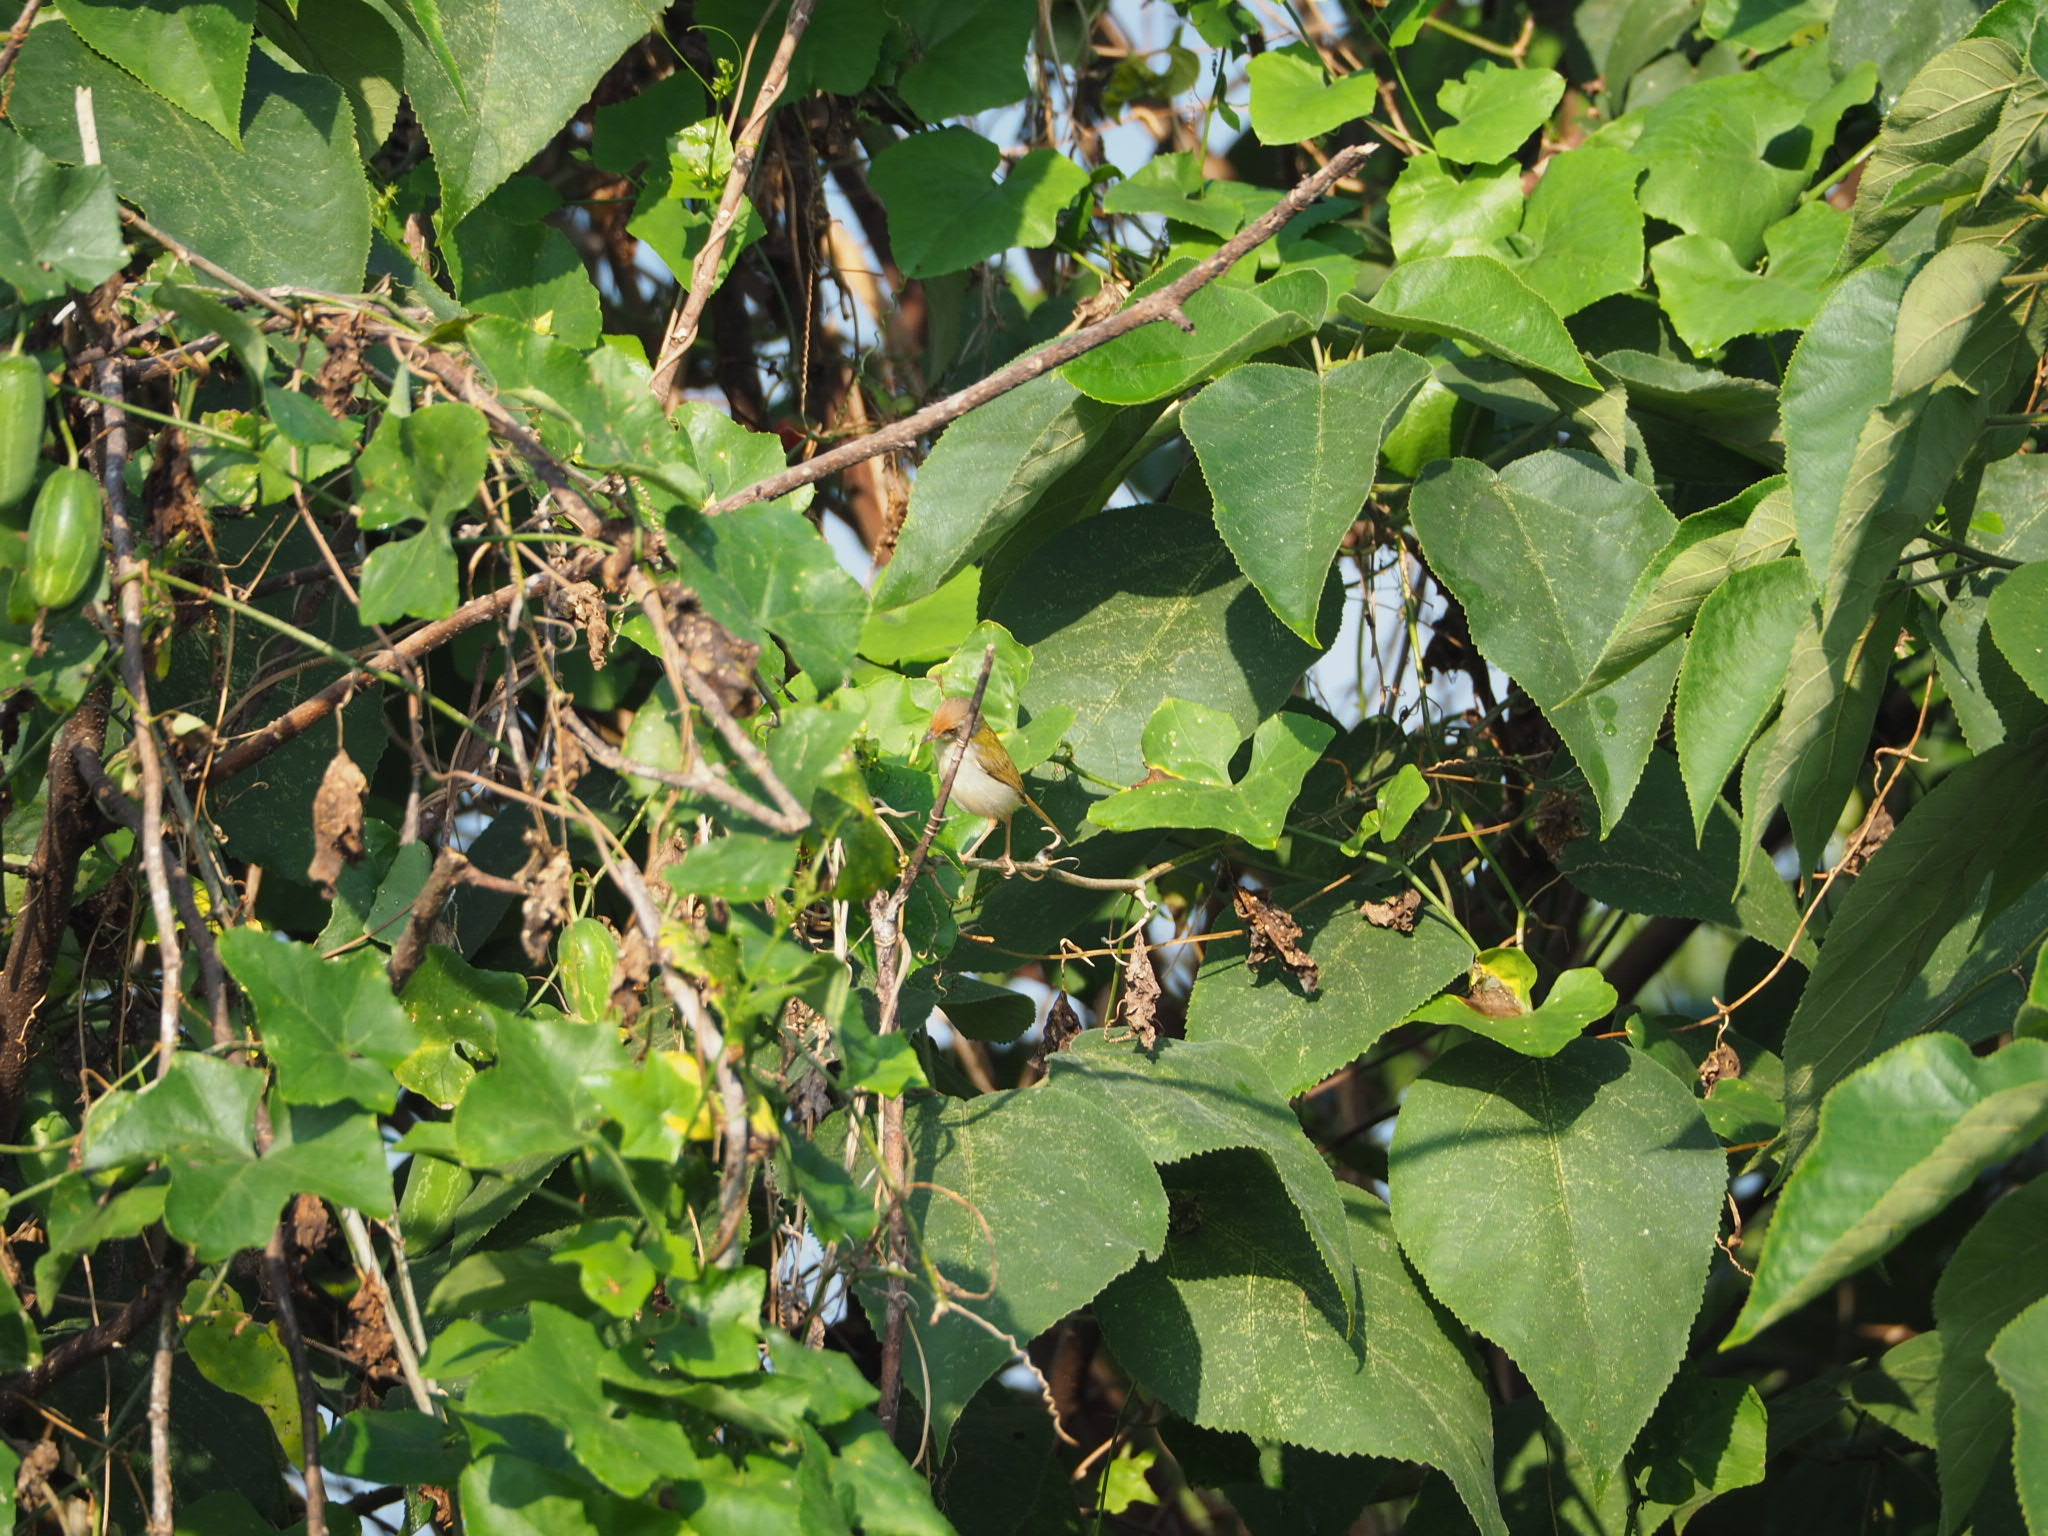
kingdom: Animalia
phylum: Chordata
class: Aves
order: Passeriformes
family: Cisticolidae
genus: Orthotomus
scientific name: Orthotomus sutorius
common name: Common tailorbird
